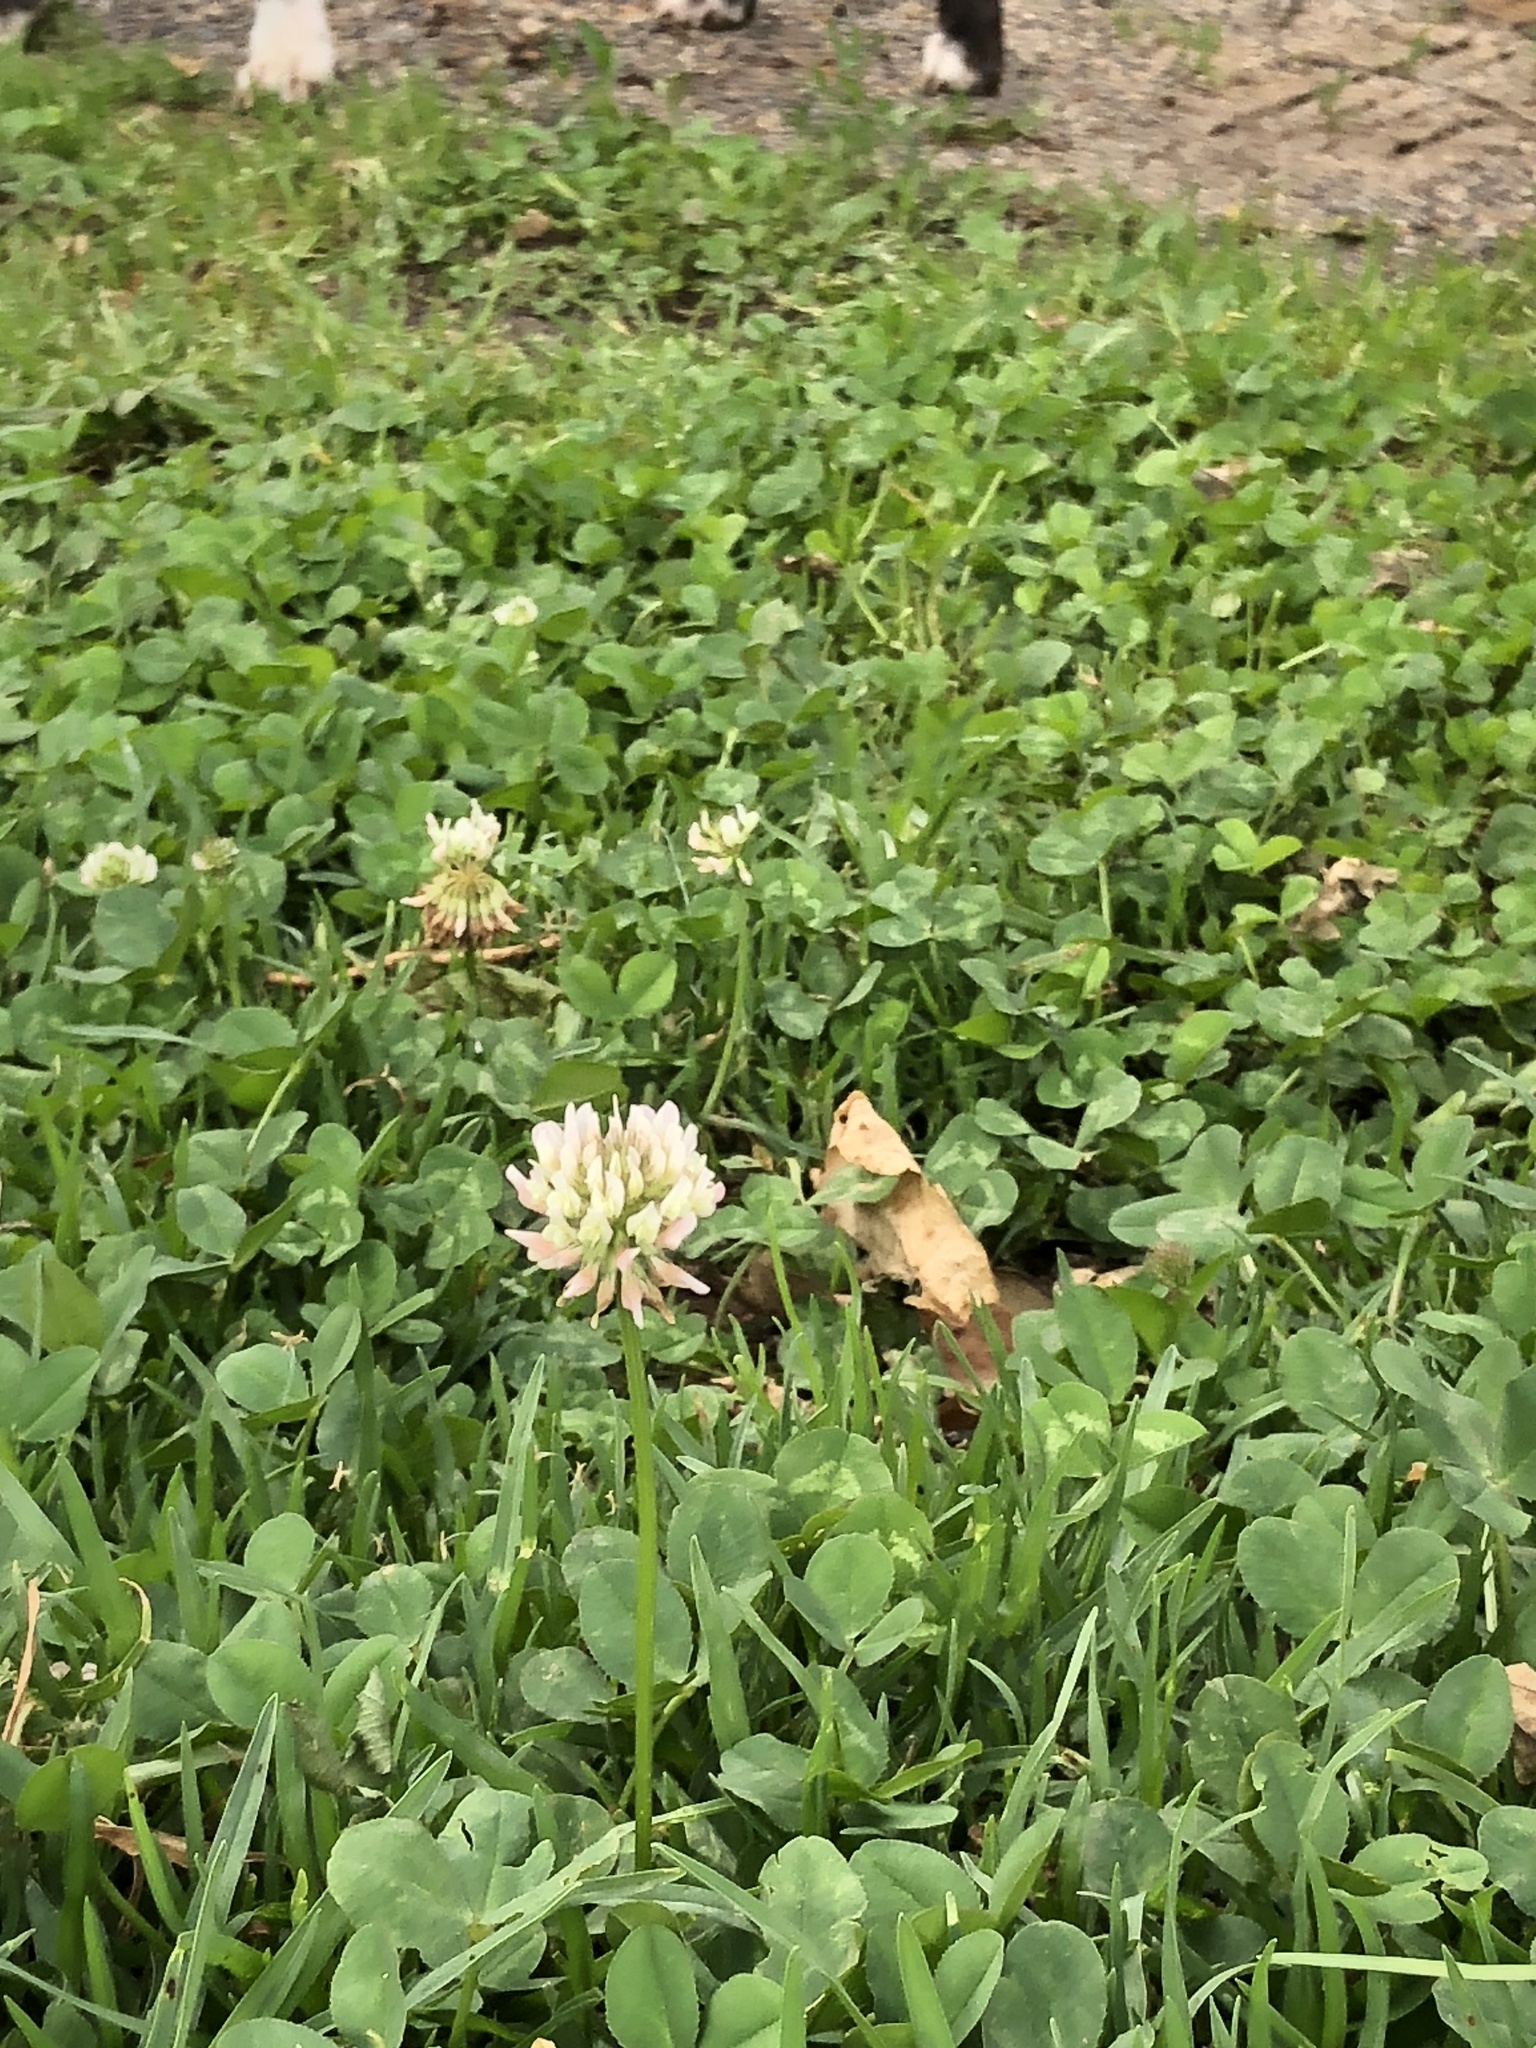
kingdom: Plantae
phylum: Tracheophyta
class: Magnoliopsida
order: Fabales
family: Fabaceae
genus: Trifolium
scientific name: Trifolium repens
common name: White clover
